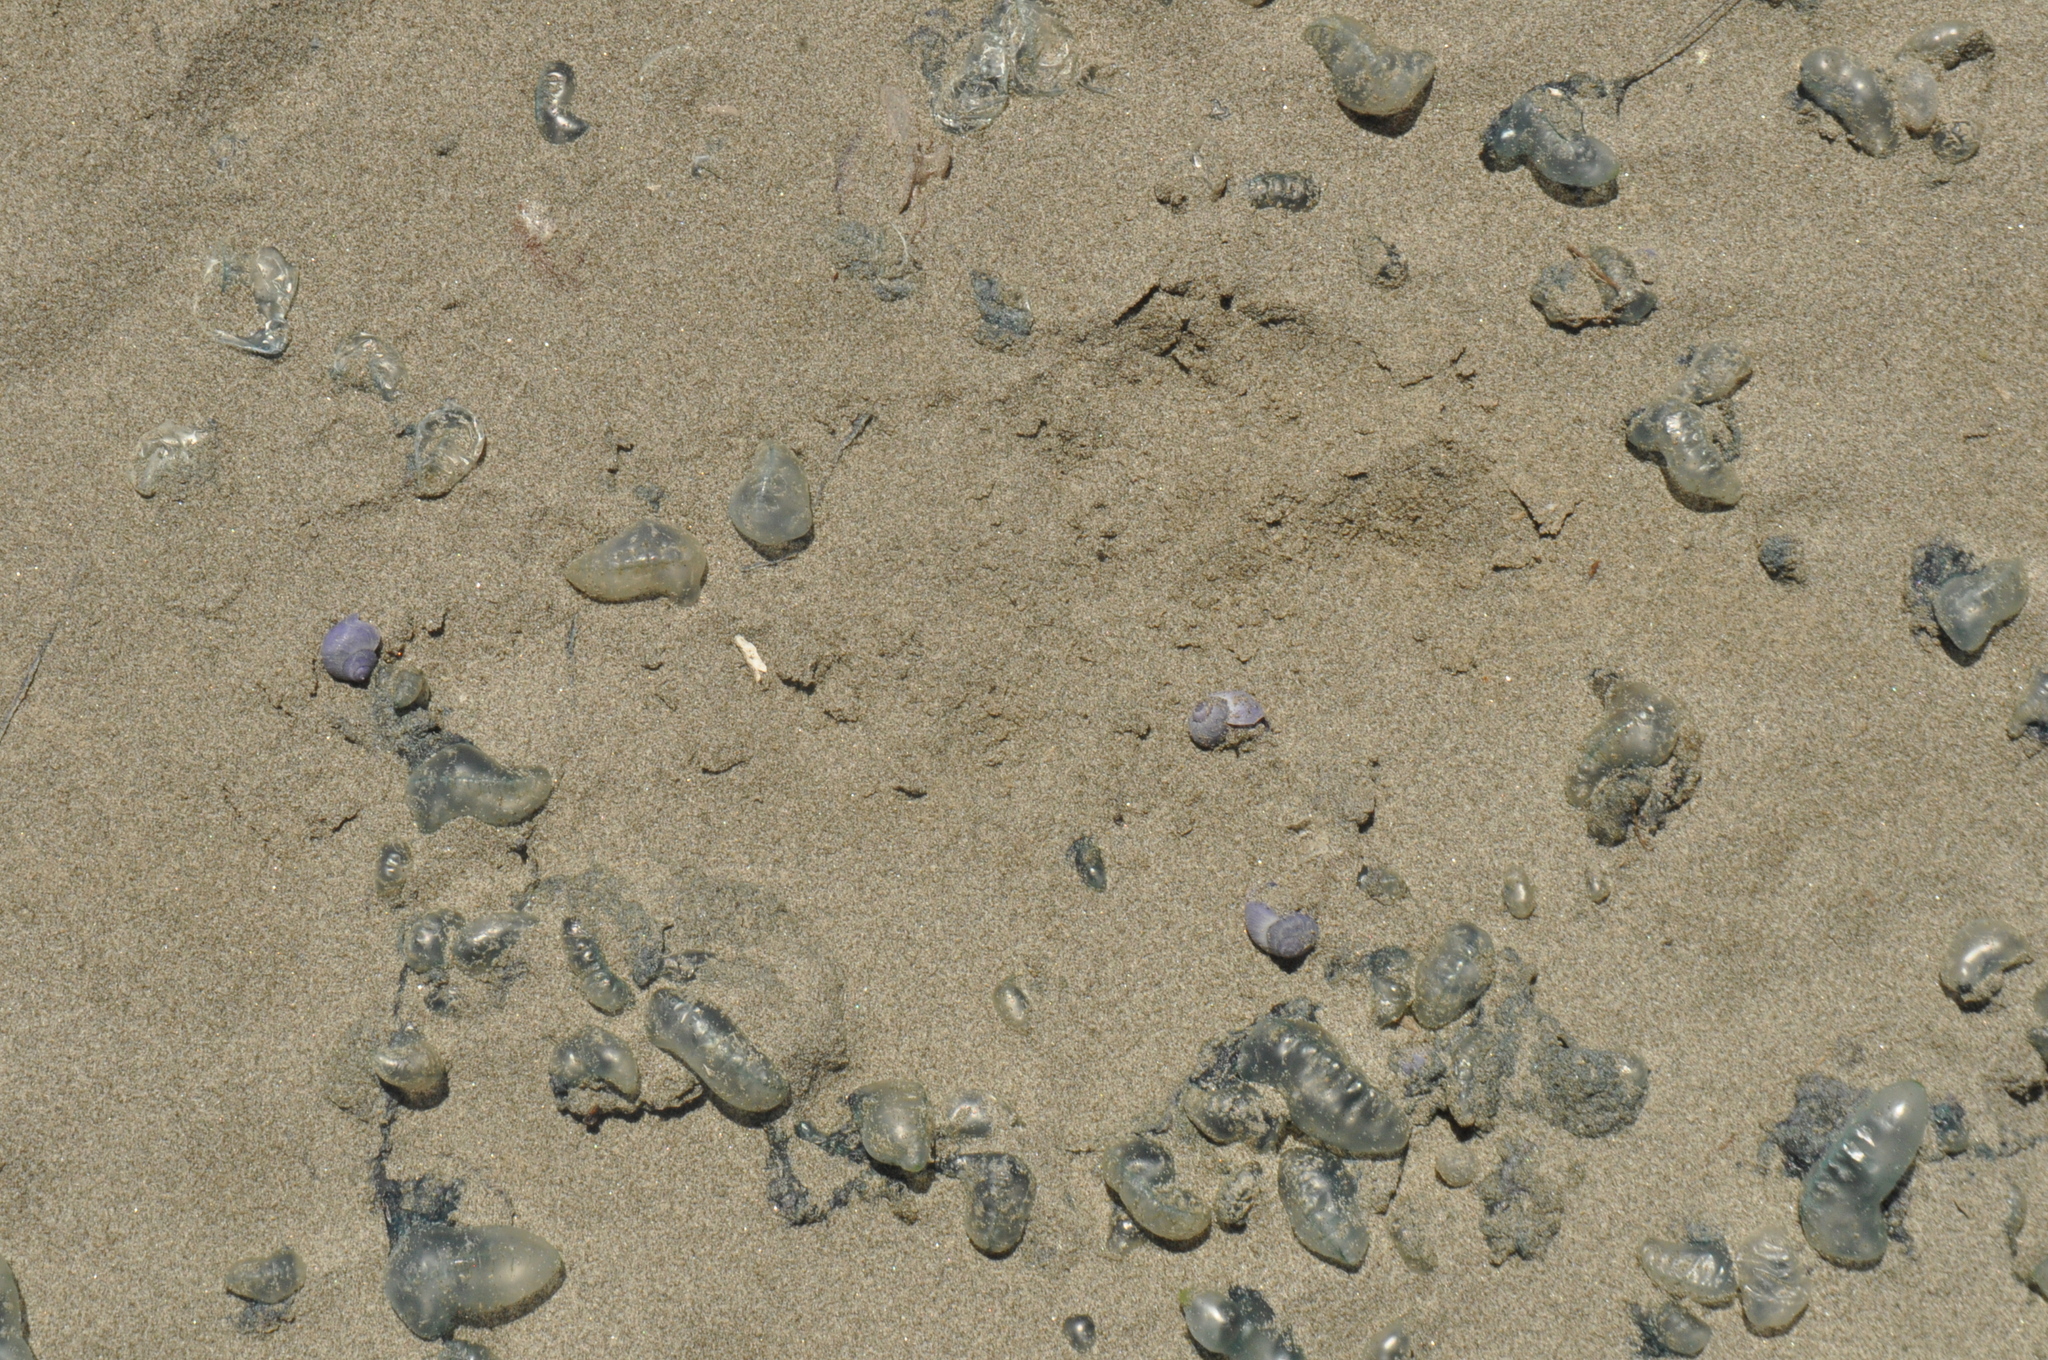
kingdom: Animalia
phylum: Cnidaria
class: Hydrozoa
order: Siphonophorae
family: Physaliidae
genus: Physalia
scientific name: Physalia physalis
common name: Portuguese man-of-war
